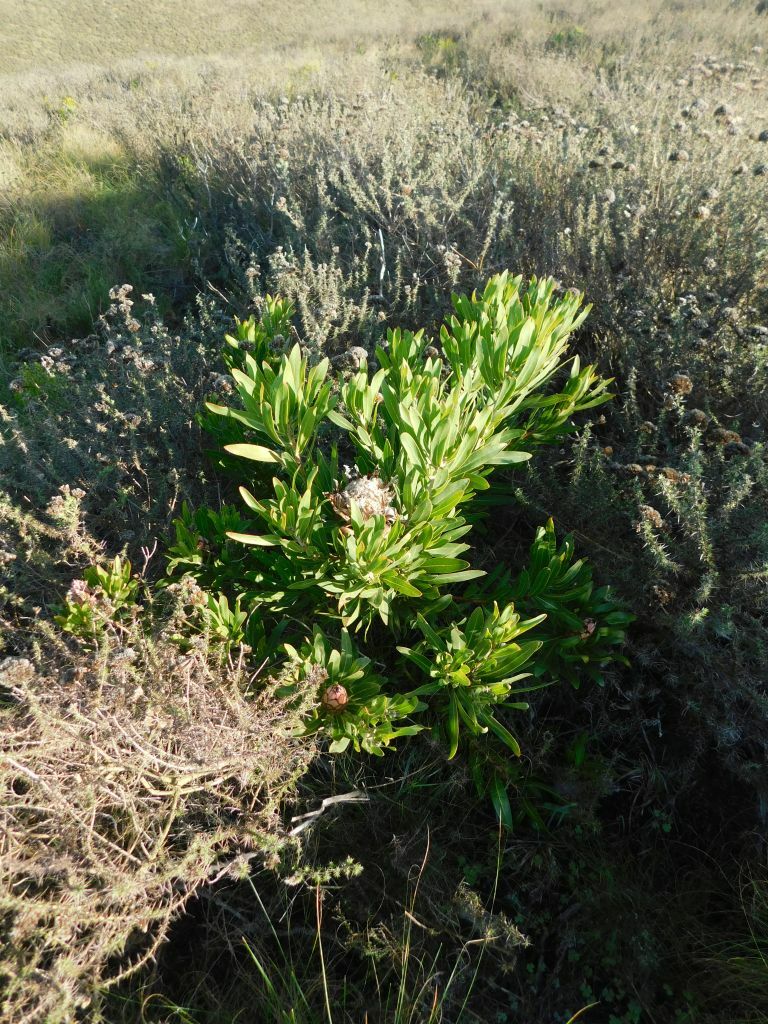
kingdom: Plantae
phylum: Tracheophyta
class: Magnoliopsida
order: Proteales
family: Proteaceae
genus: Protea
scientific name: Protea neriifolia
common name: Blue sugarbush
